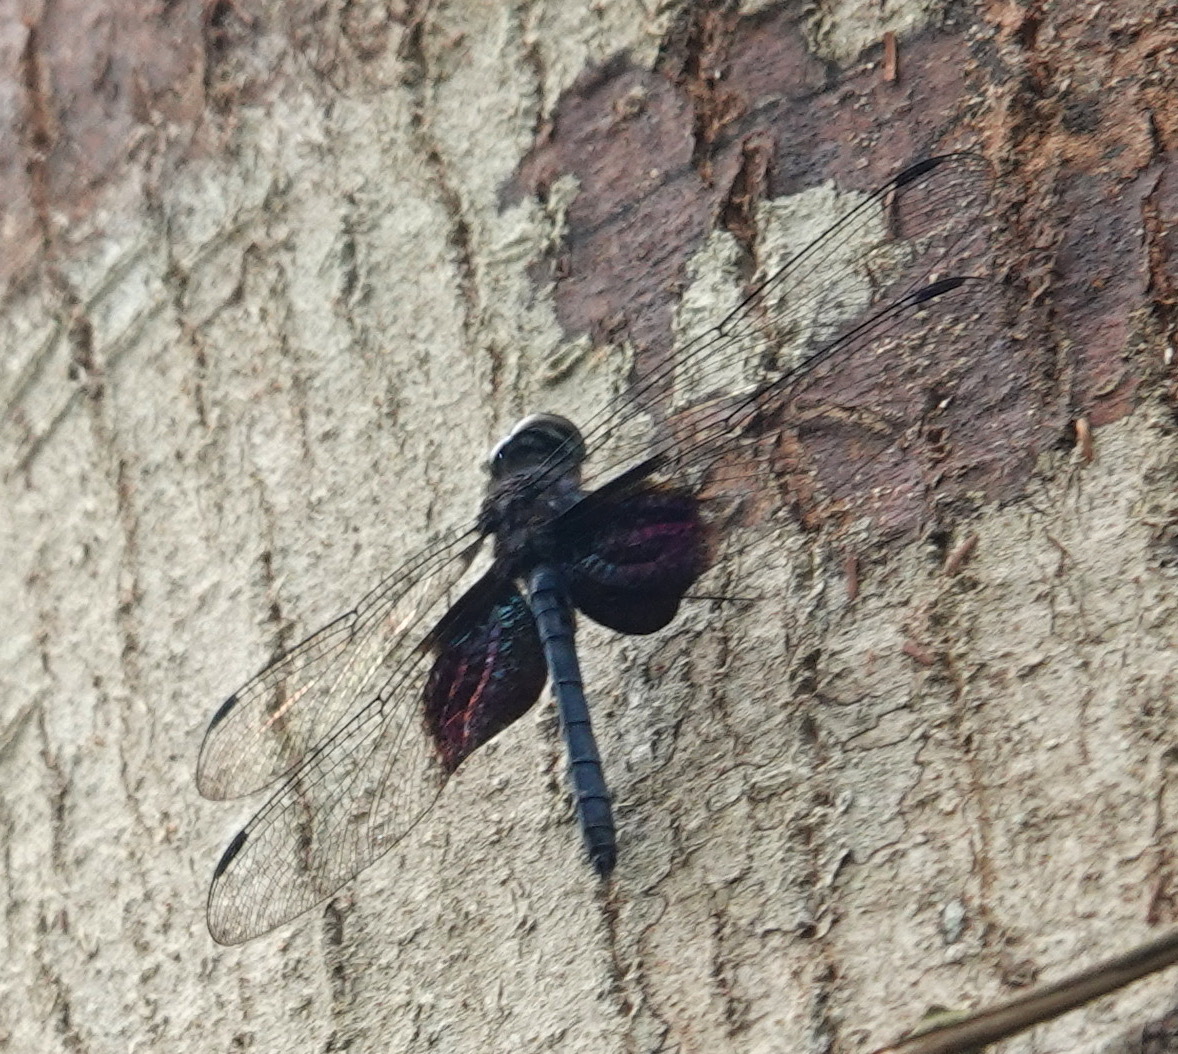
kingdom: Animalia
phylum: Arthropoda
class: Insecta
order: Odonata
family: Libellulidae
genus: Tyriobapta
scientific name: Tyriobapta torrida
